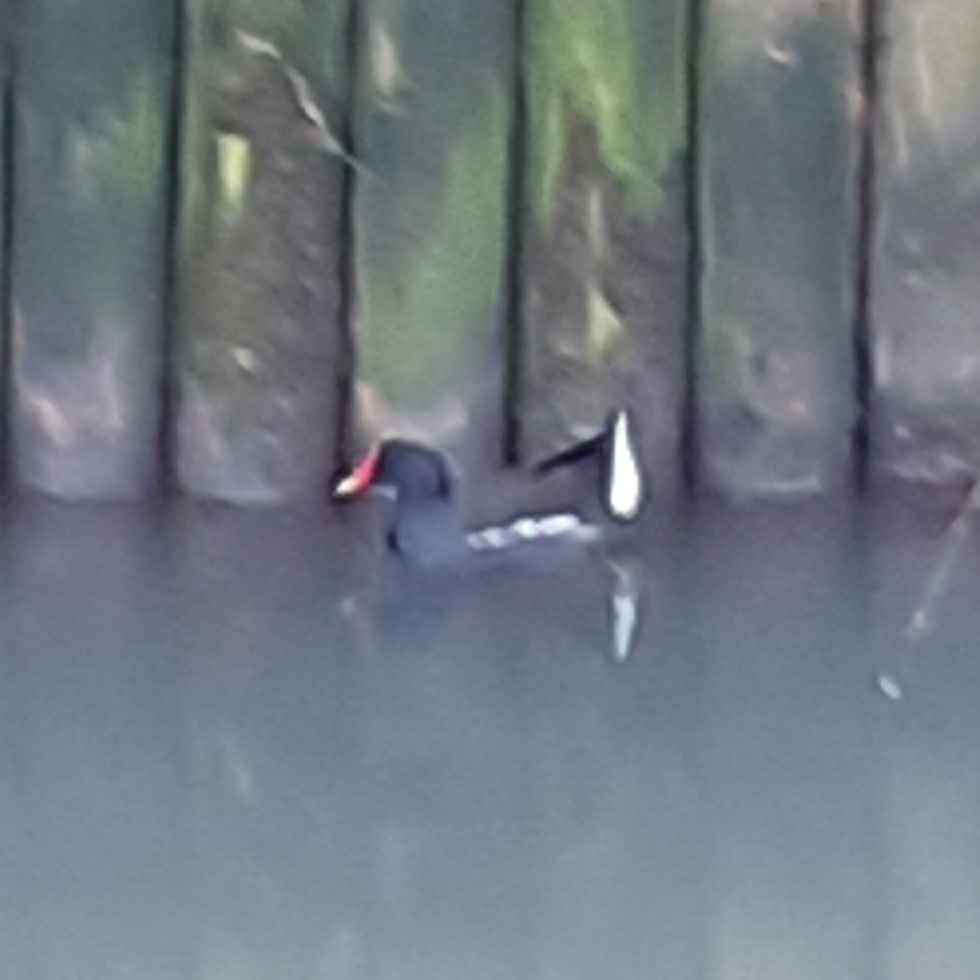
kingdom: Animalia
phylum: Chordata
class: Aves
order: Gruiformes
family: Rallidae
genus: Gallinula
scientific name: Gallinula chloropus
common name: Common moorhen
